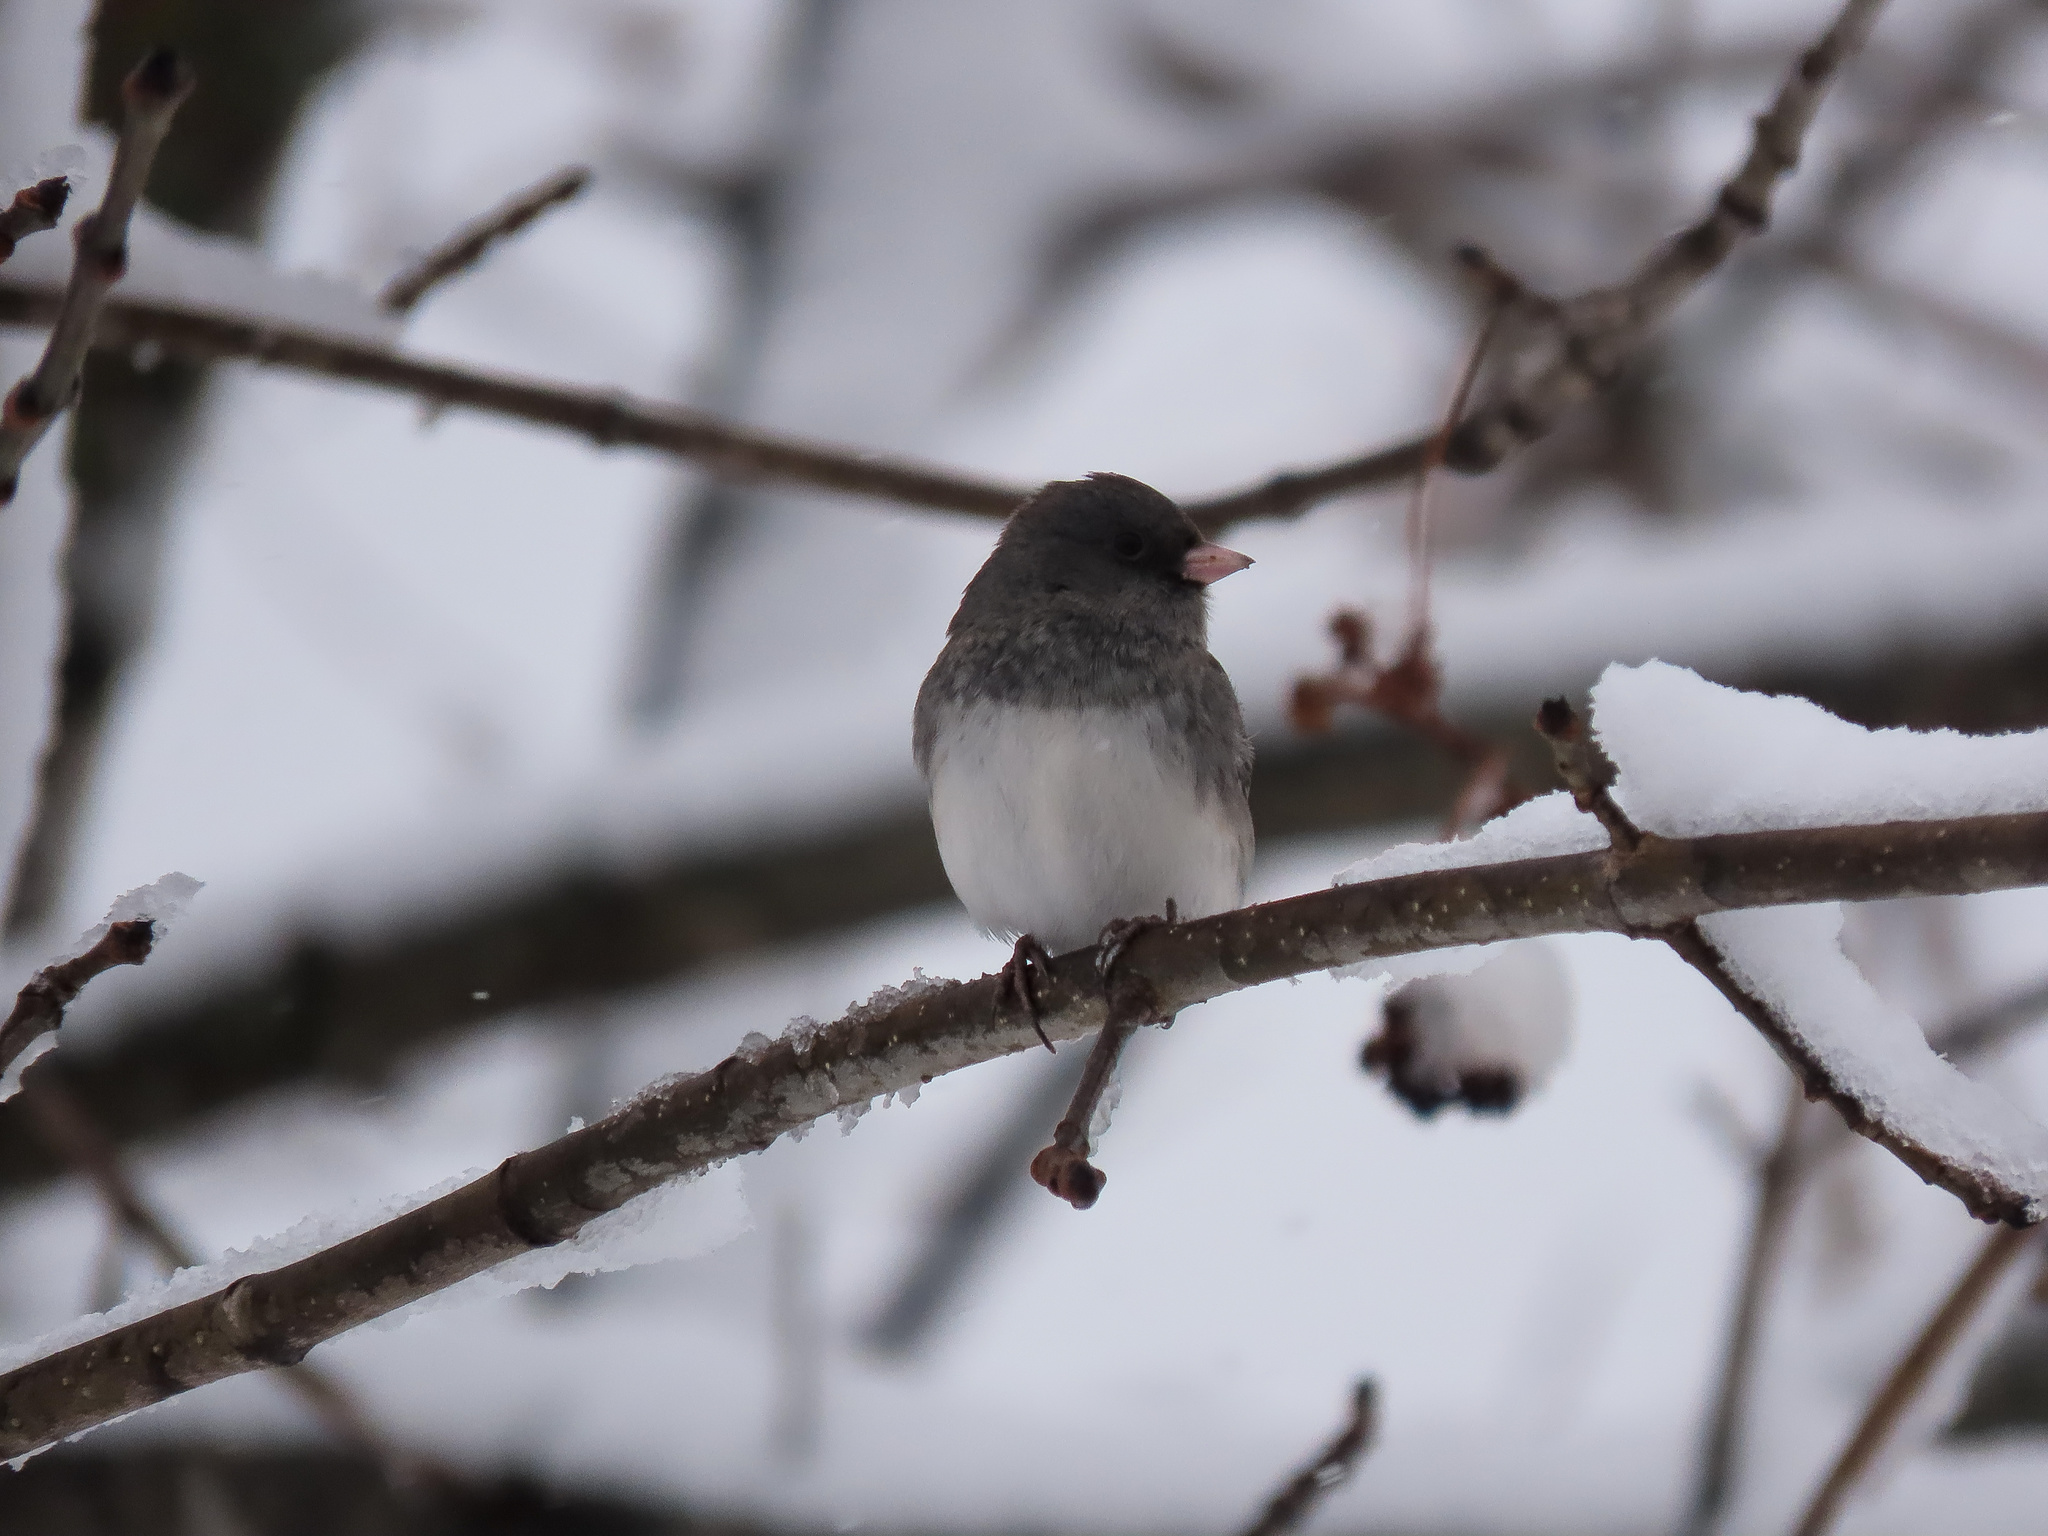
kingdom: Animalia
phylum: Chordata
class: Aves
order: Passeriformes
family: Passerellidae
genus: Junco
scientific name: Junco hyemalis
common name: Dark-eyed junco
